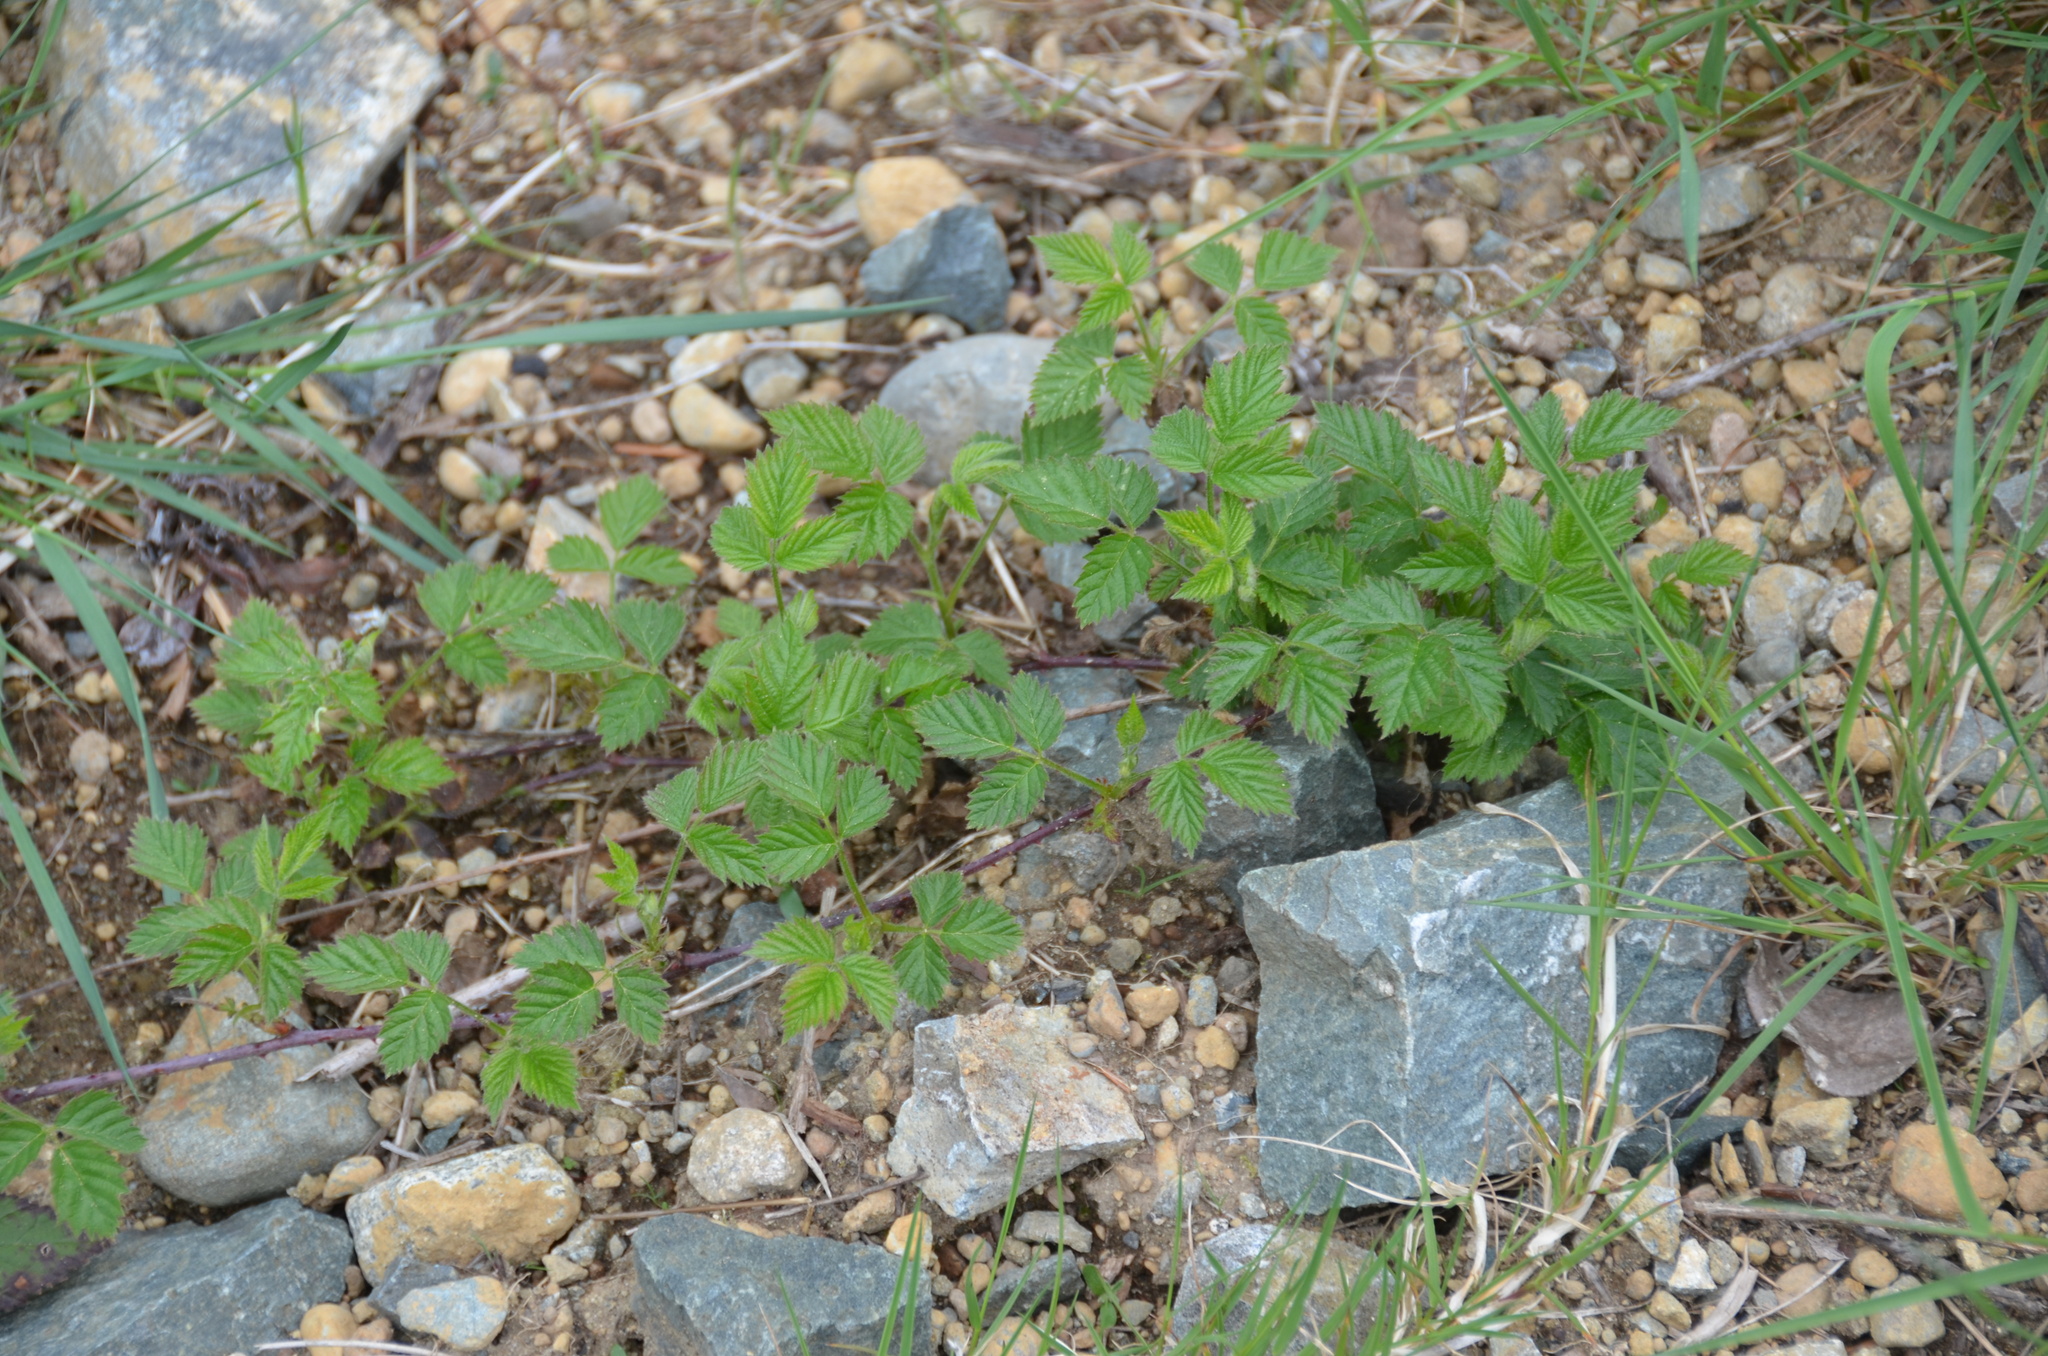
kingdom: Plantae
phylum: Tracheophyta
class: Magnoliopsida
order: Rosales
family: Rosaceae
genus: Rubus
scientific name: Rubus ursinus
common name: Pacific blackberry
